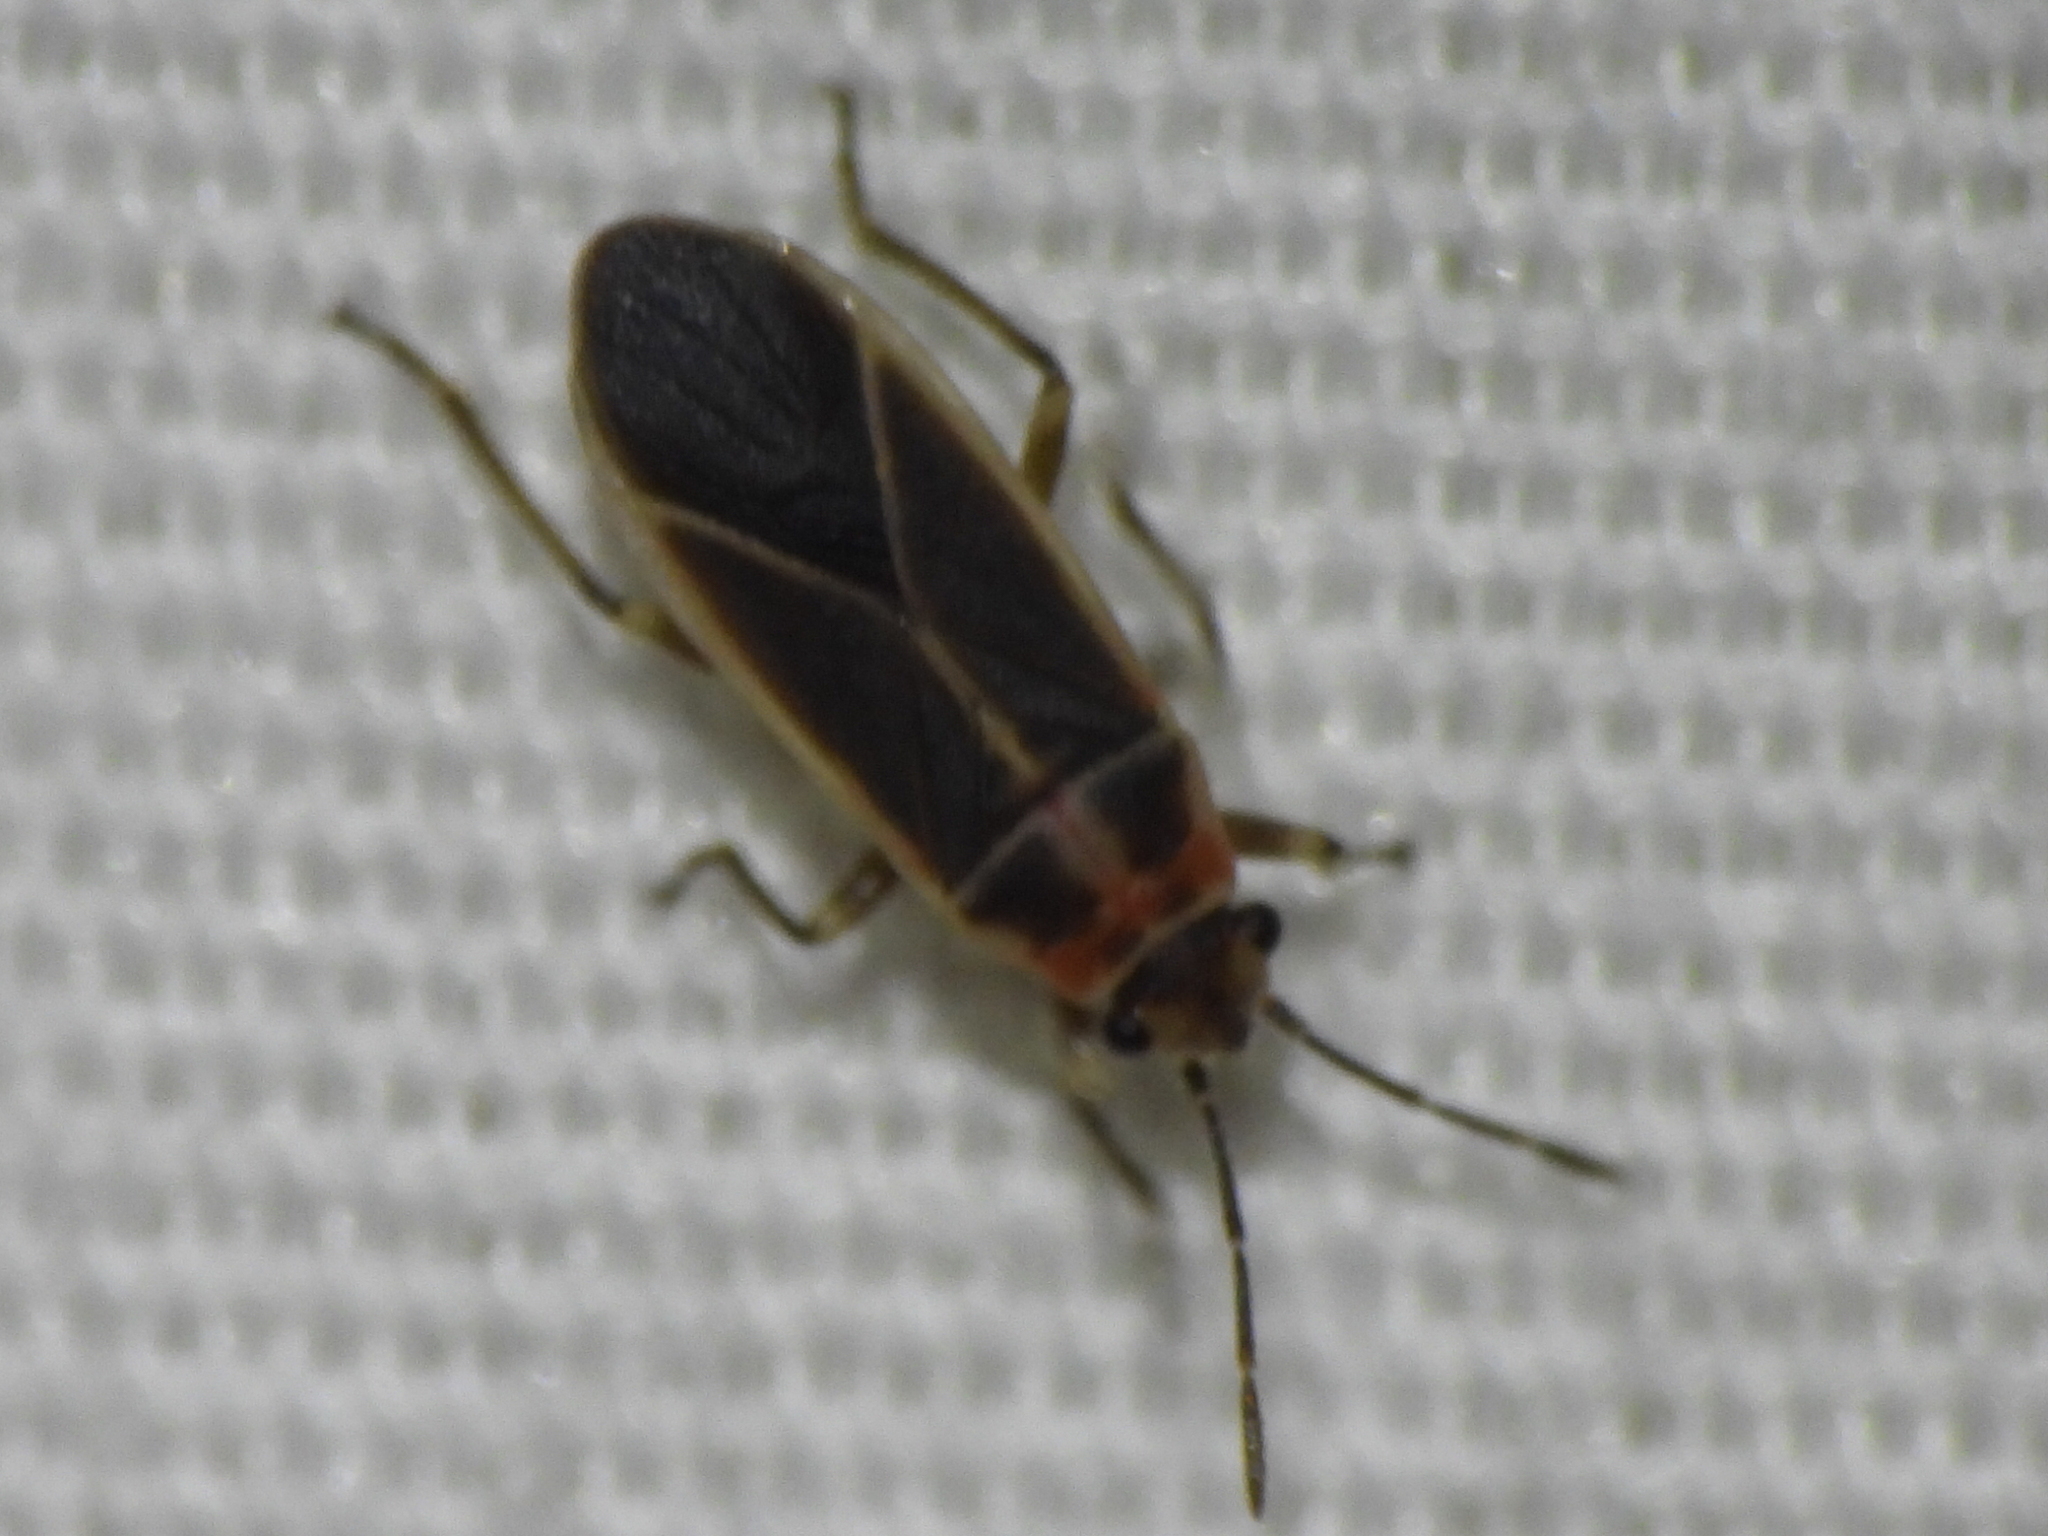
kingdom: Animalia
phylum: Arthropoda
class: Insecta
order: Hemiptera
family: Lygaeidae
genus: Ochrimnus
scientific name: Ochrimnus mimulus
